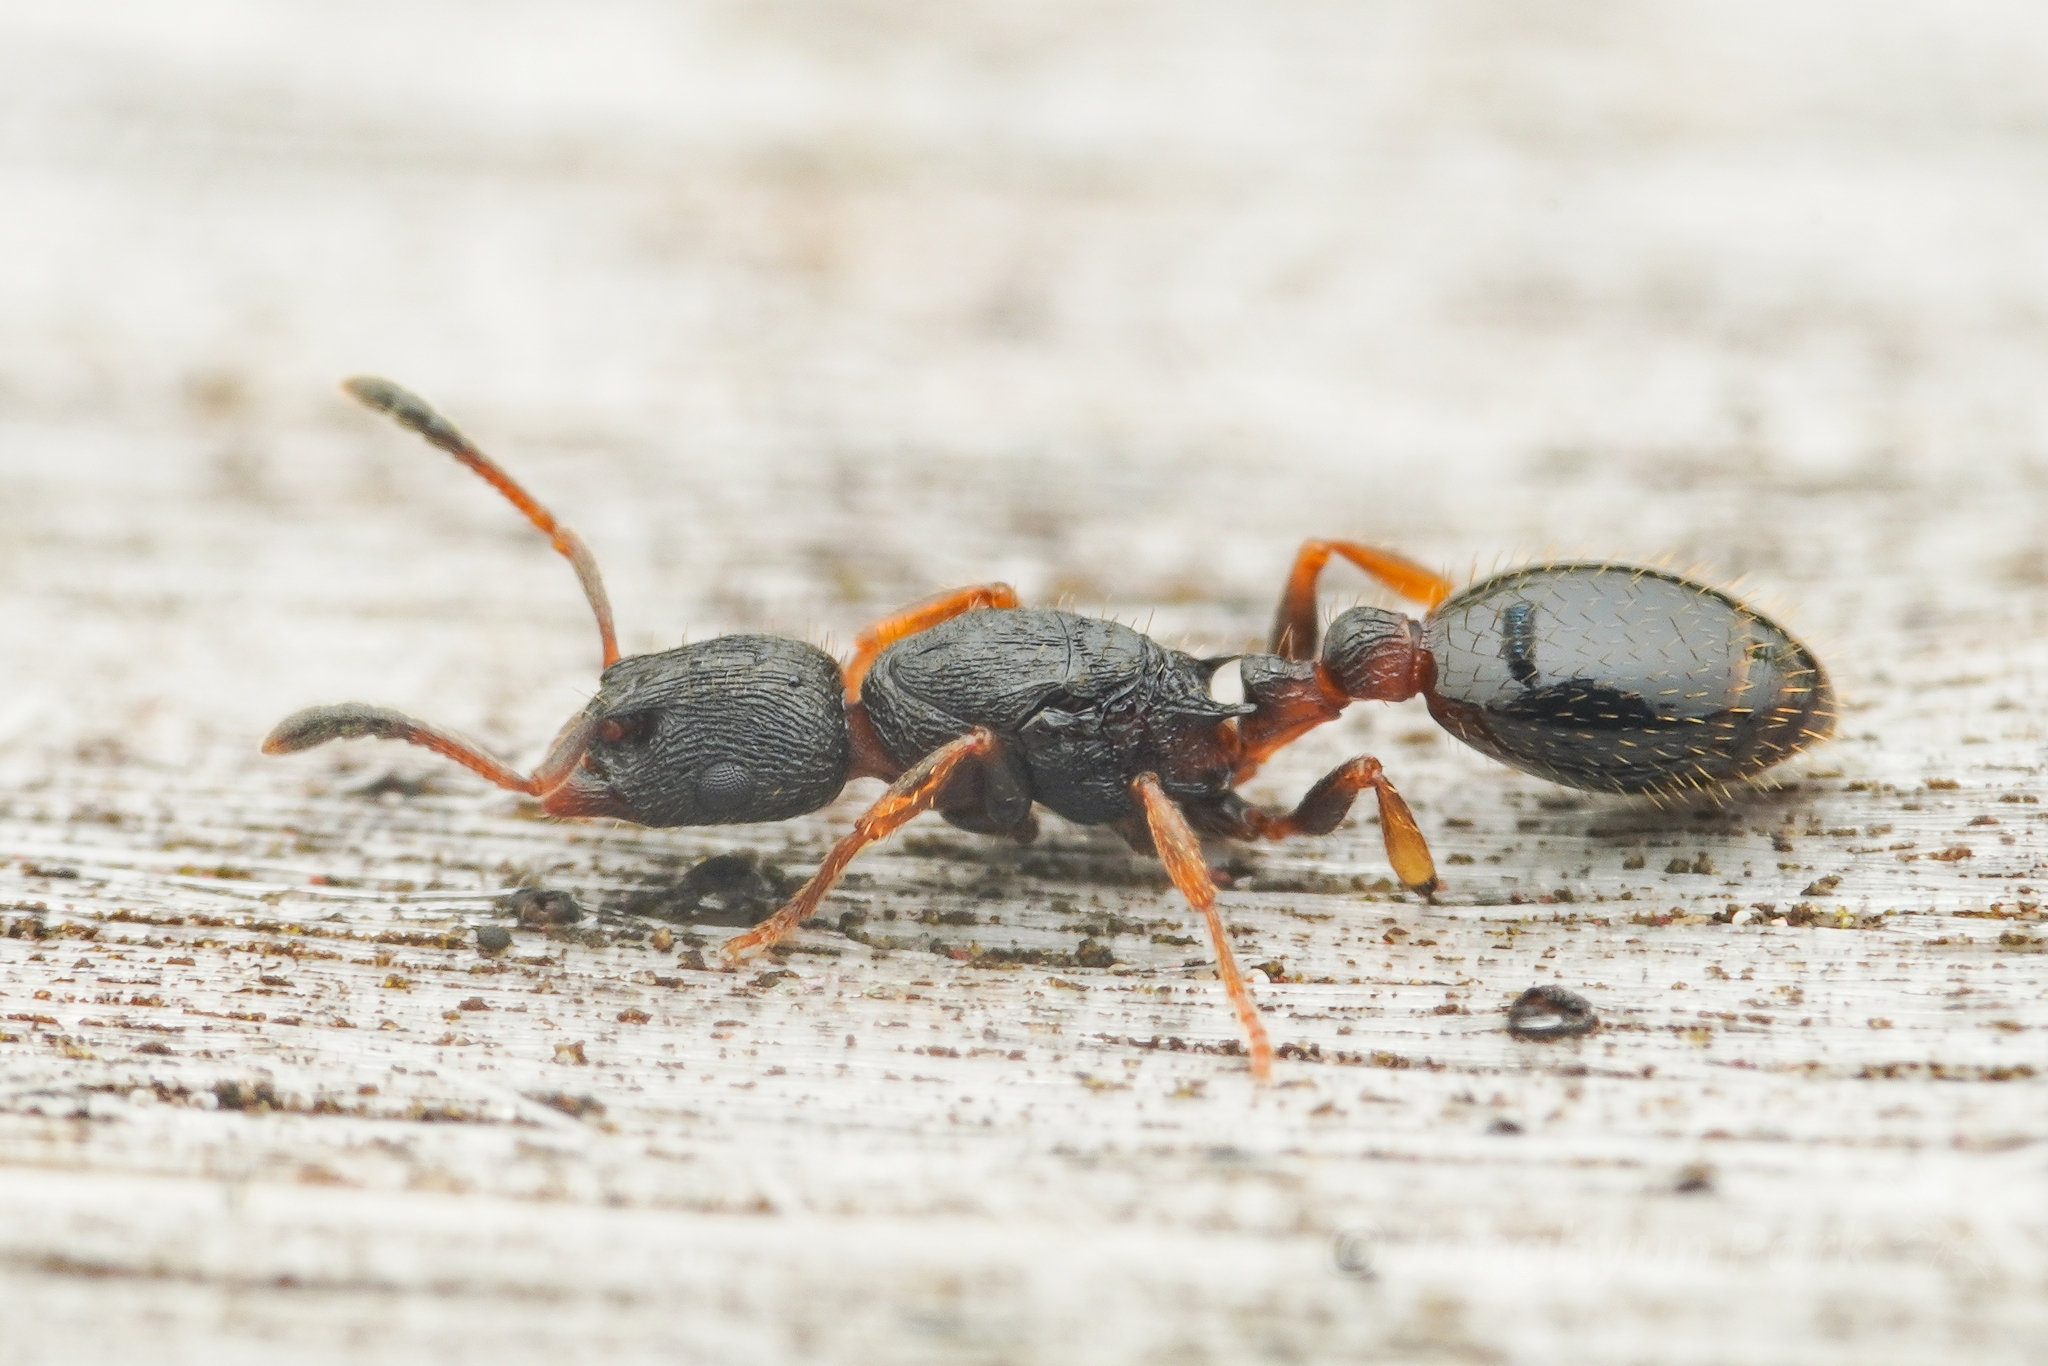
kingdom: Animalia
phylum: Arthropoda
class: Insecta
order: Hymenoptera
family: Formicidae
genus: Leptothorax
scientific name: Leptothorax acervorum
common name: Slender ant
